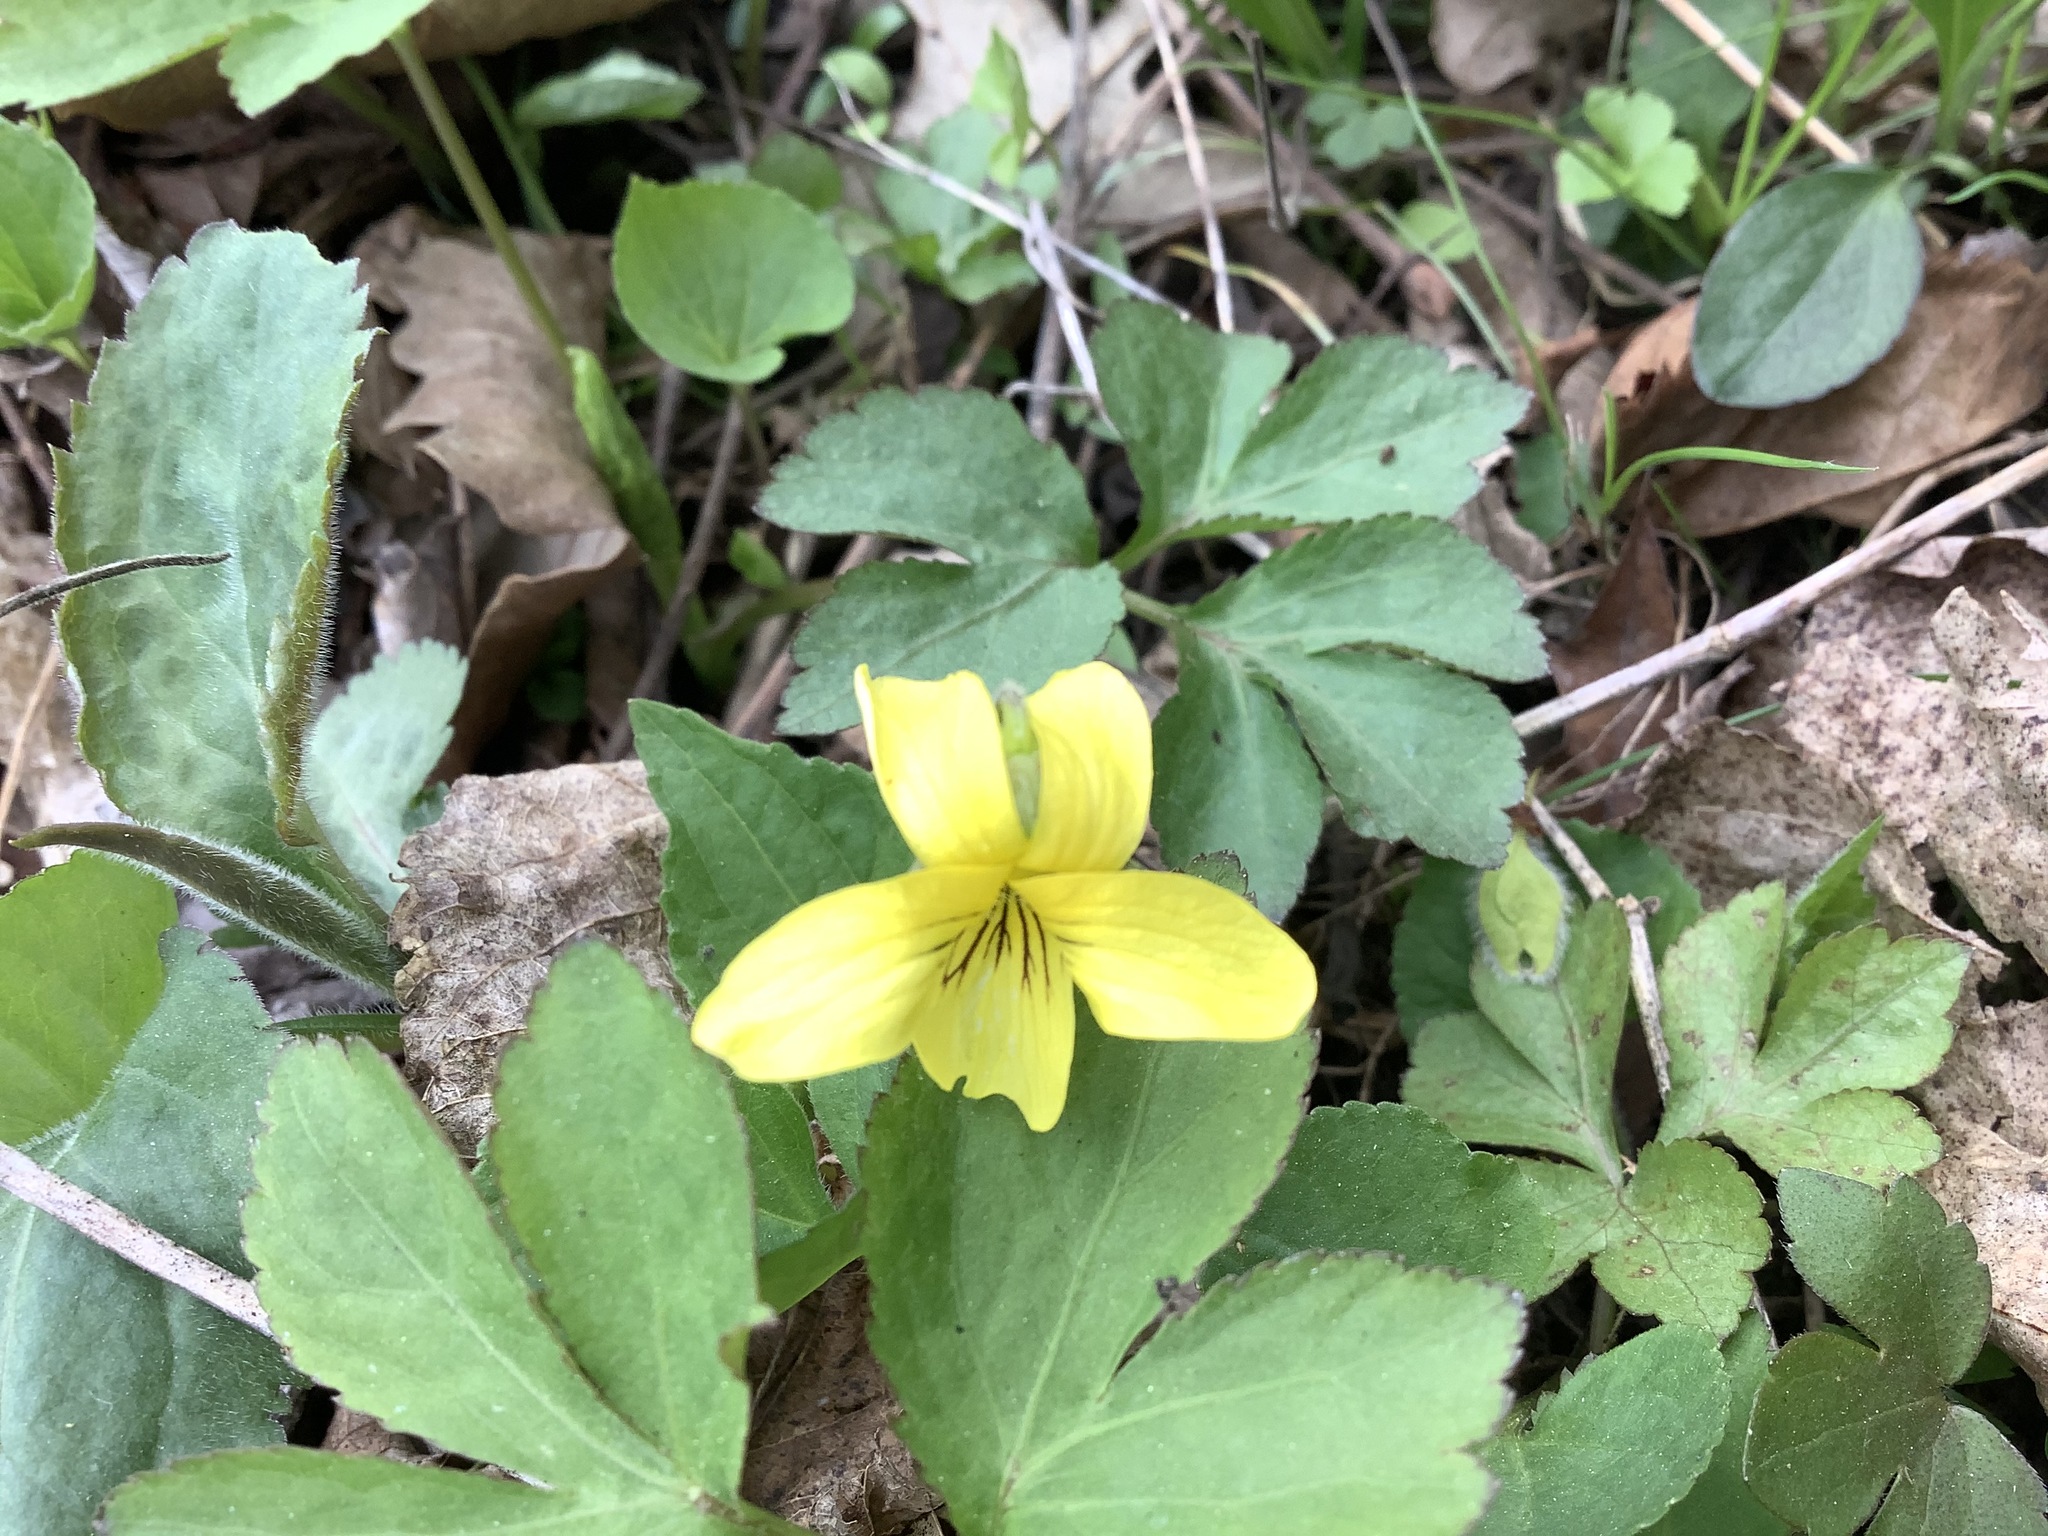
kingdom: Plantae
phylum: Tracheophyta
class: Magnoliopsida
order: Malpighiales
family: Violaceae
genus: Viola
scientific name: Viola eriocarpa
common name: Smooth yellow violet
